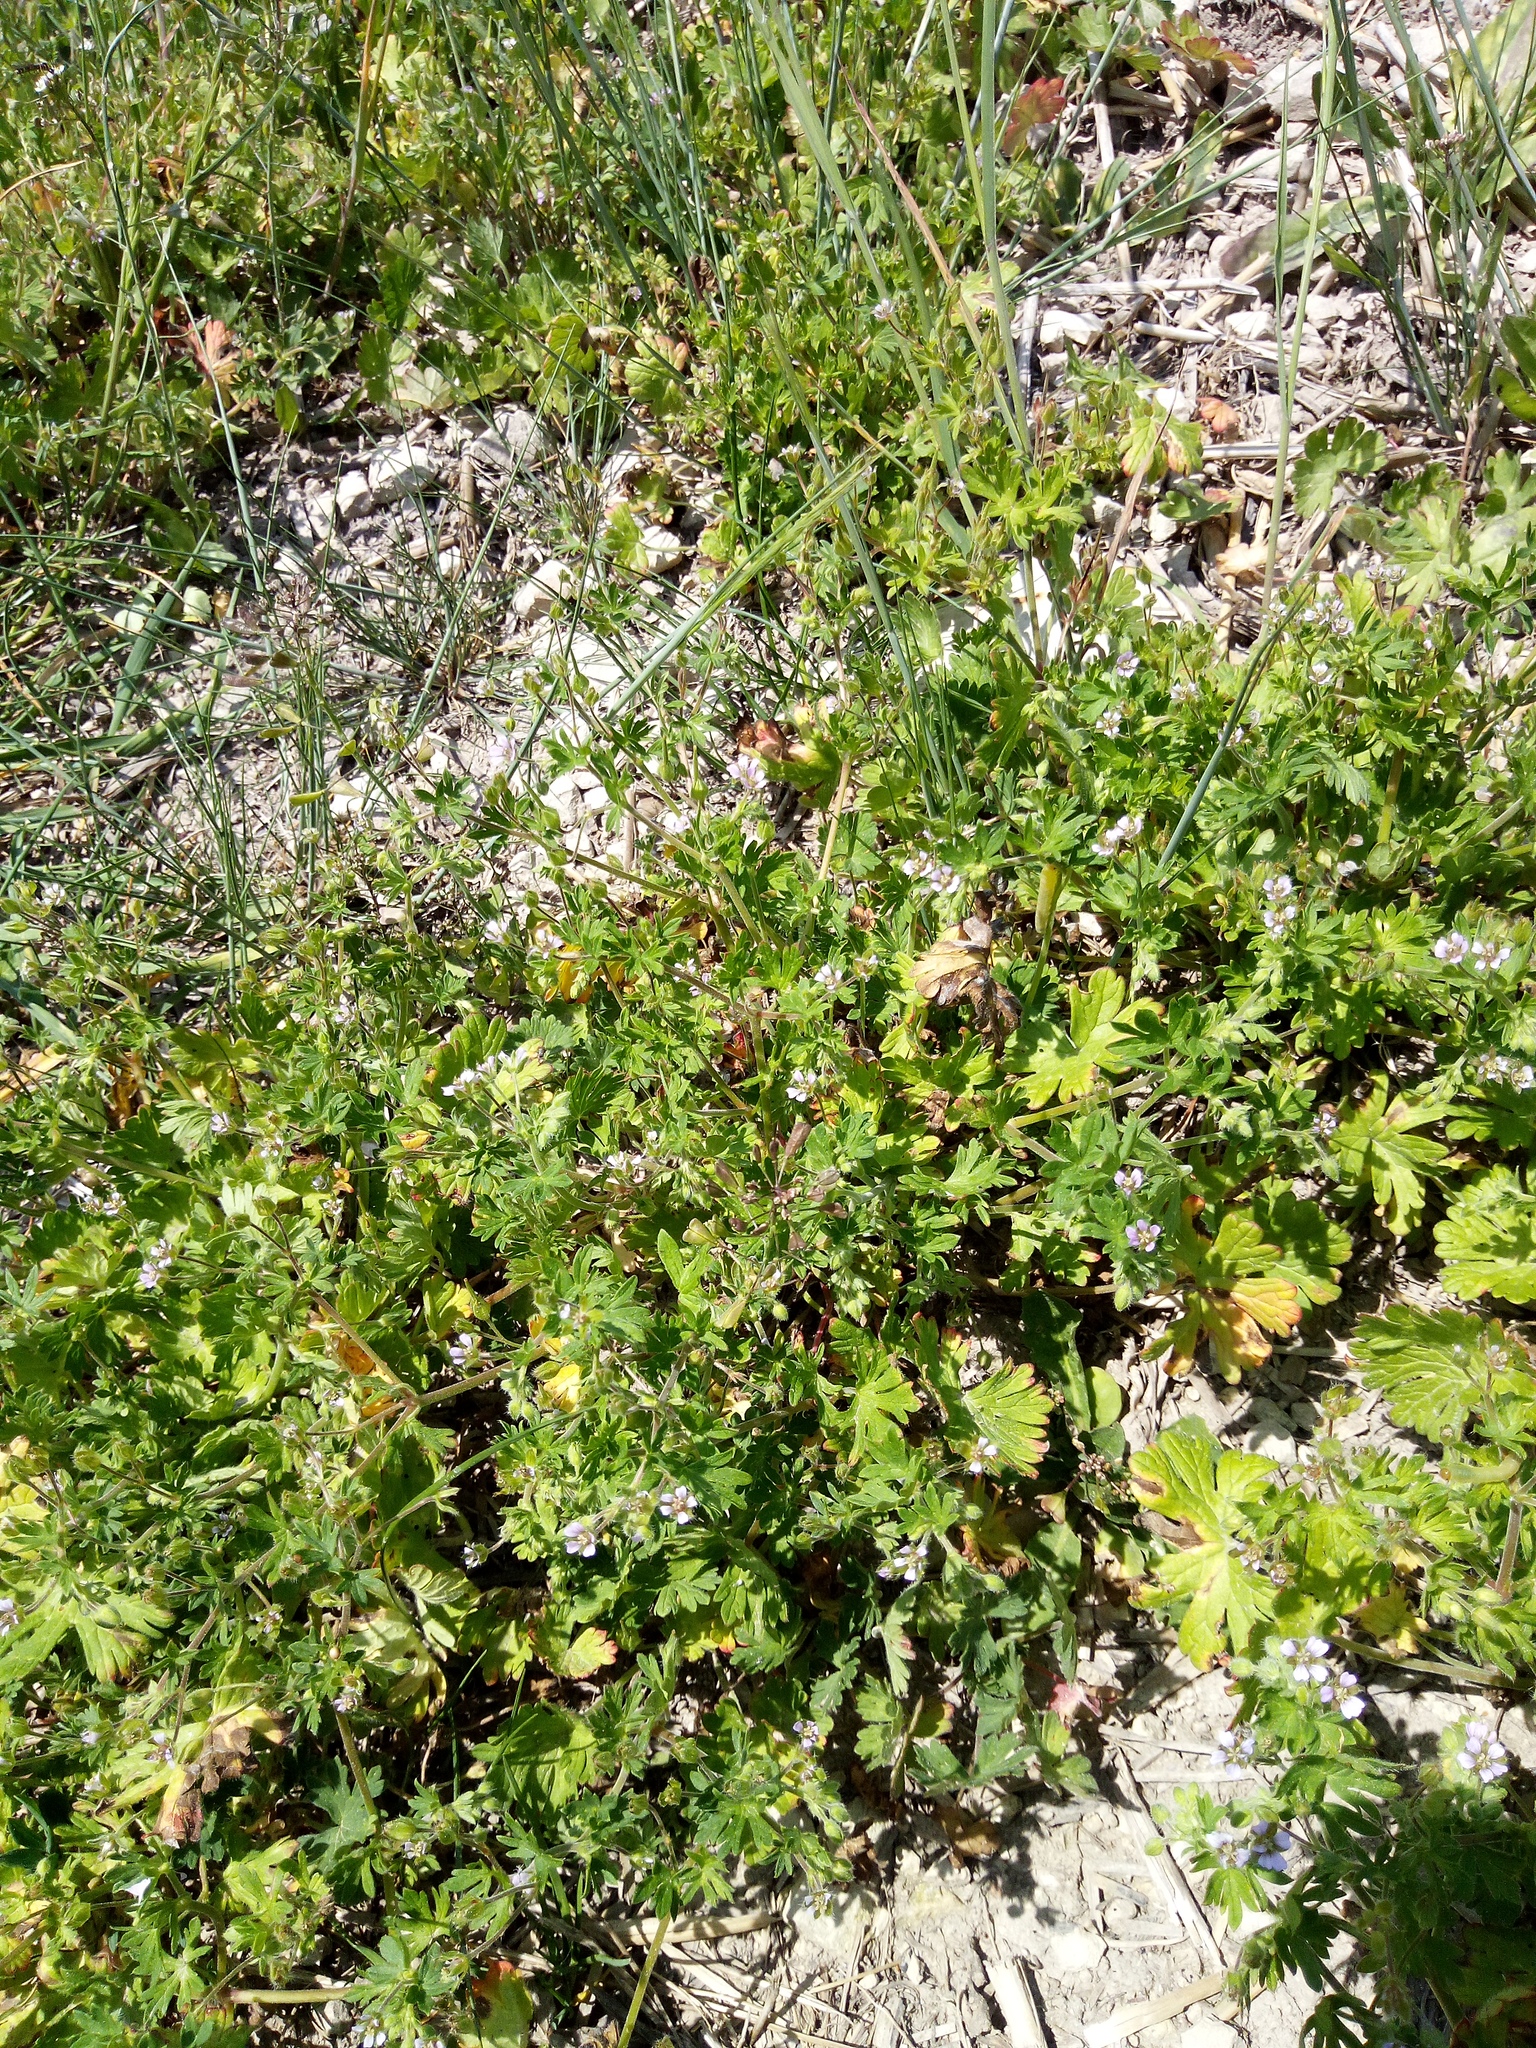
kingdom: Plantae
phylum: Tracheophyta
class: Magnoliopsida
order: Geraniales
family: Geraniaceae
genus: Geranium
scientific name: Geranium pusillum
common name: Small geranium
